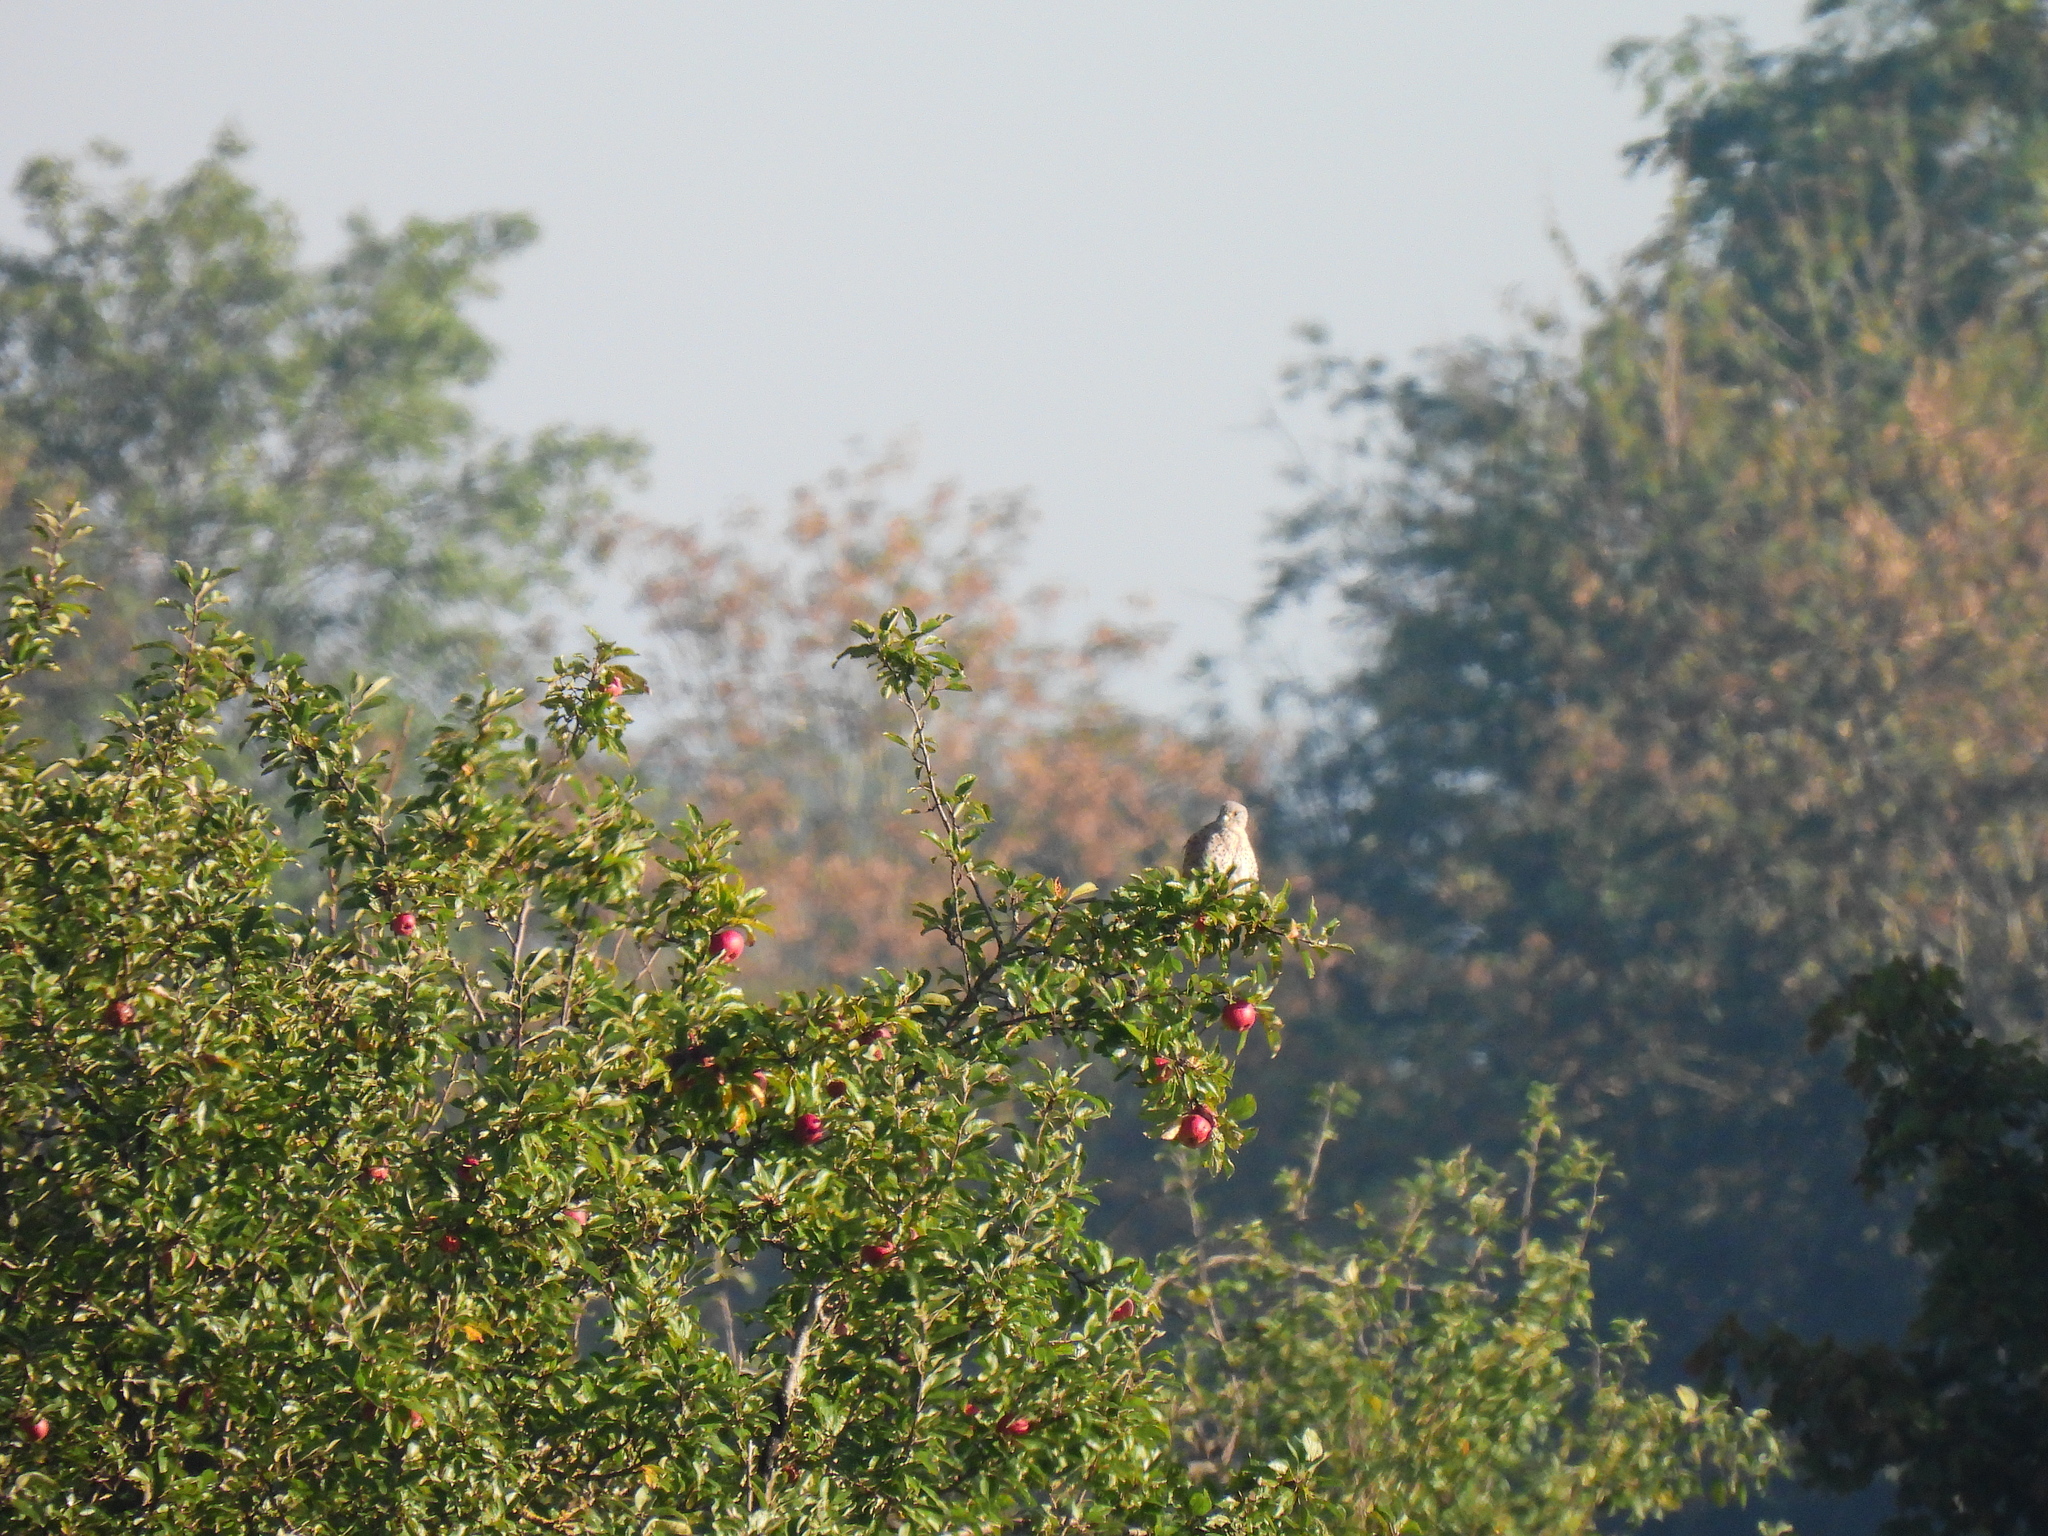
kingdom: Animalia
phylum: Chordata
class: Aves
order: Falconiformes
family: Falconidae
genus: Falco
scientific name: Falco tinnunculus
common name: Common kestrel
